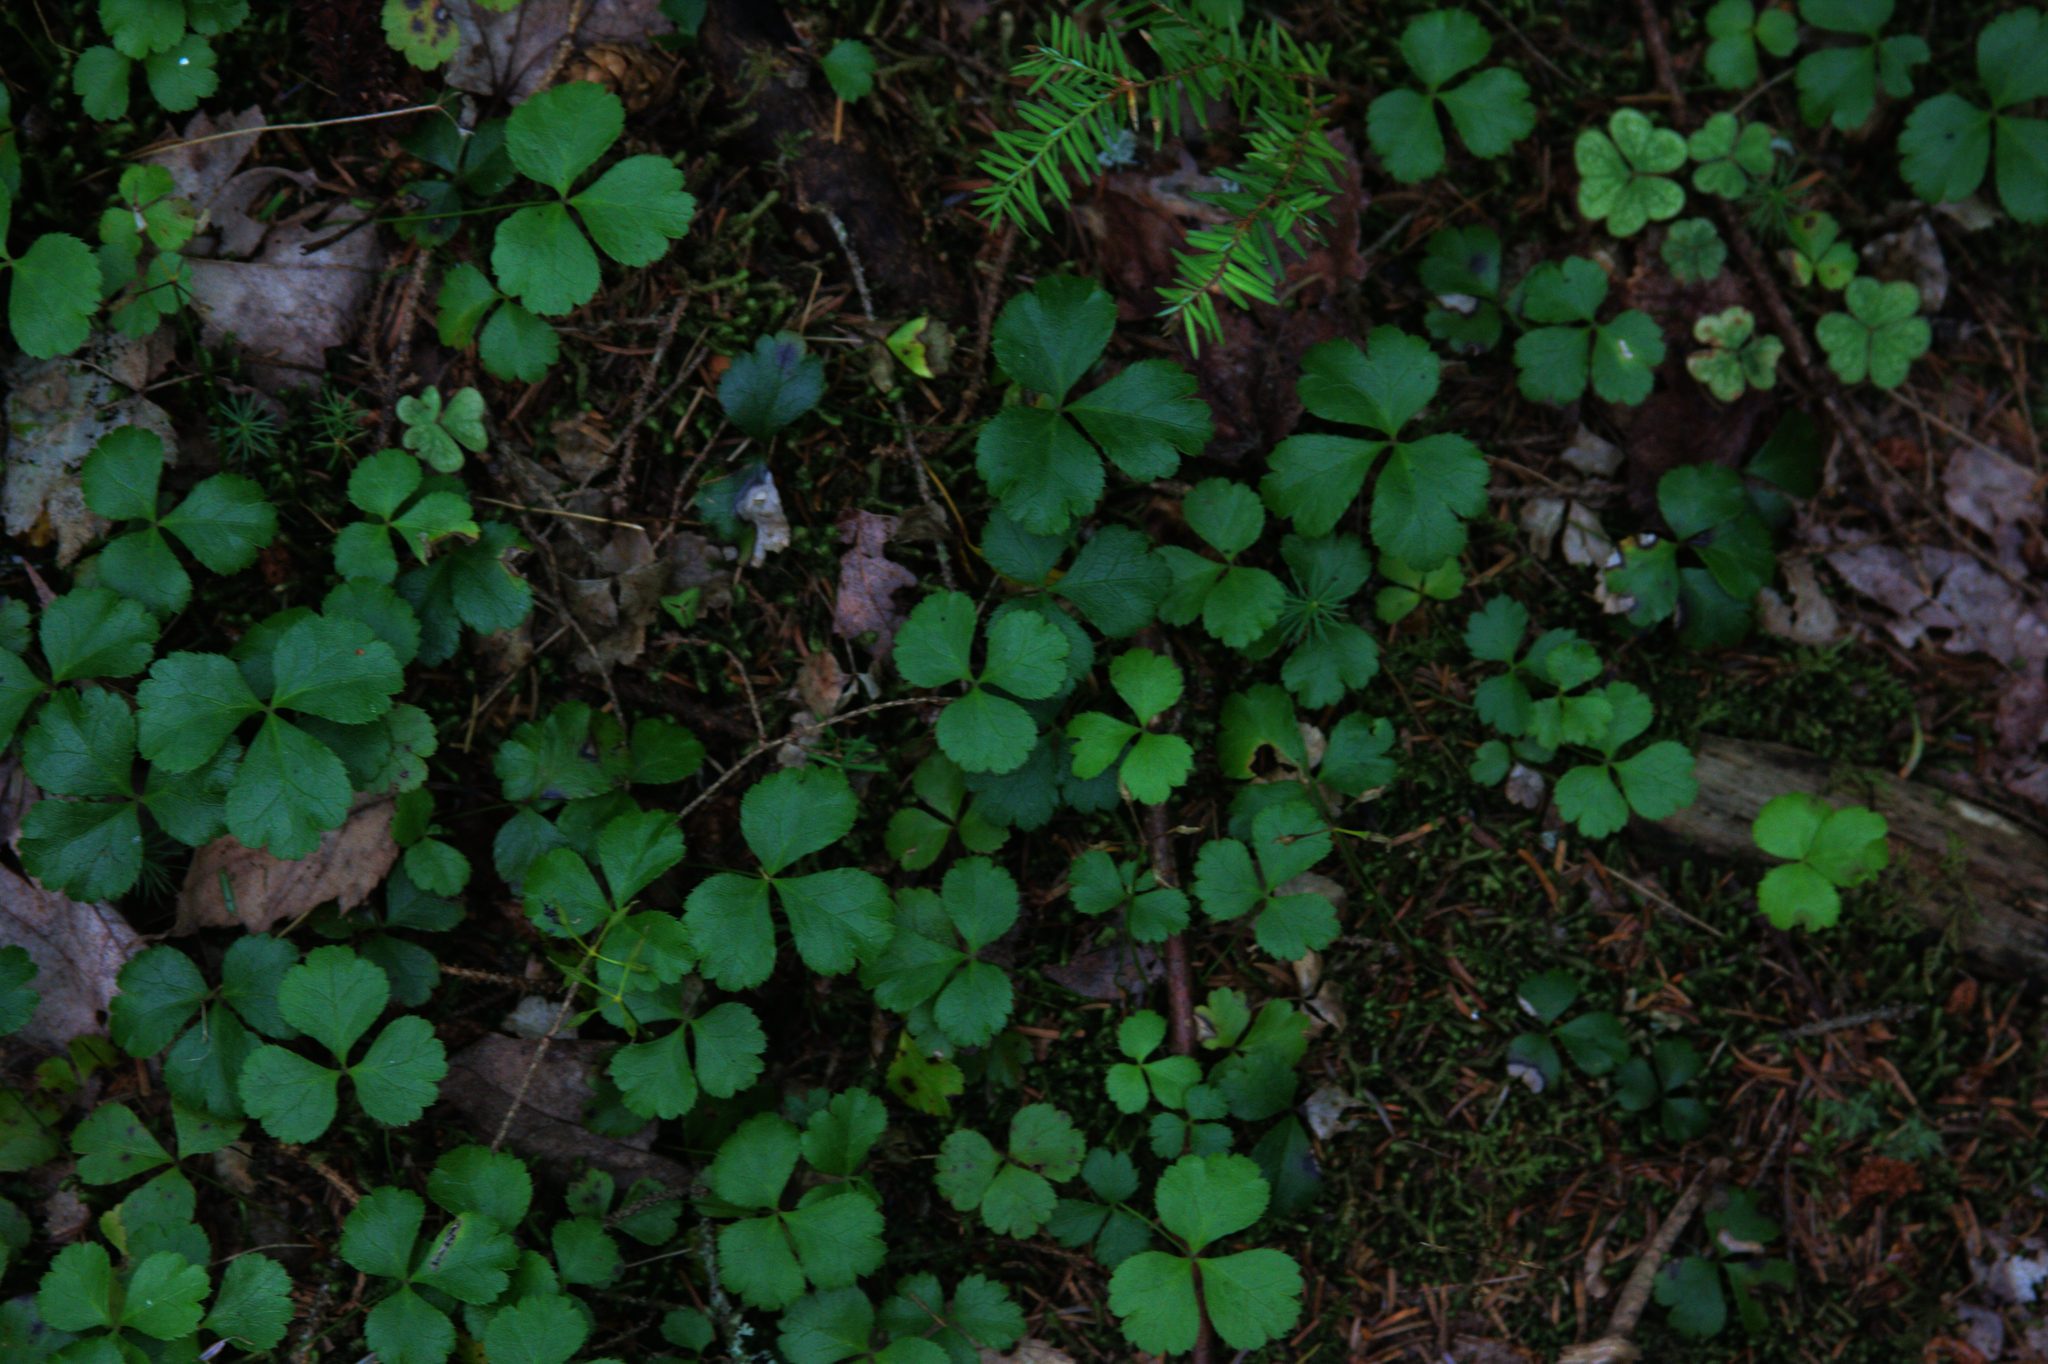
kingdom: Plantae
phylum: Tracheophyta
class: Magnoliopsida
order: Ranunculales
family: Ranunculaceae
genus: Coptis
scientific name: Coptis trifolia
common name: Canker-root
